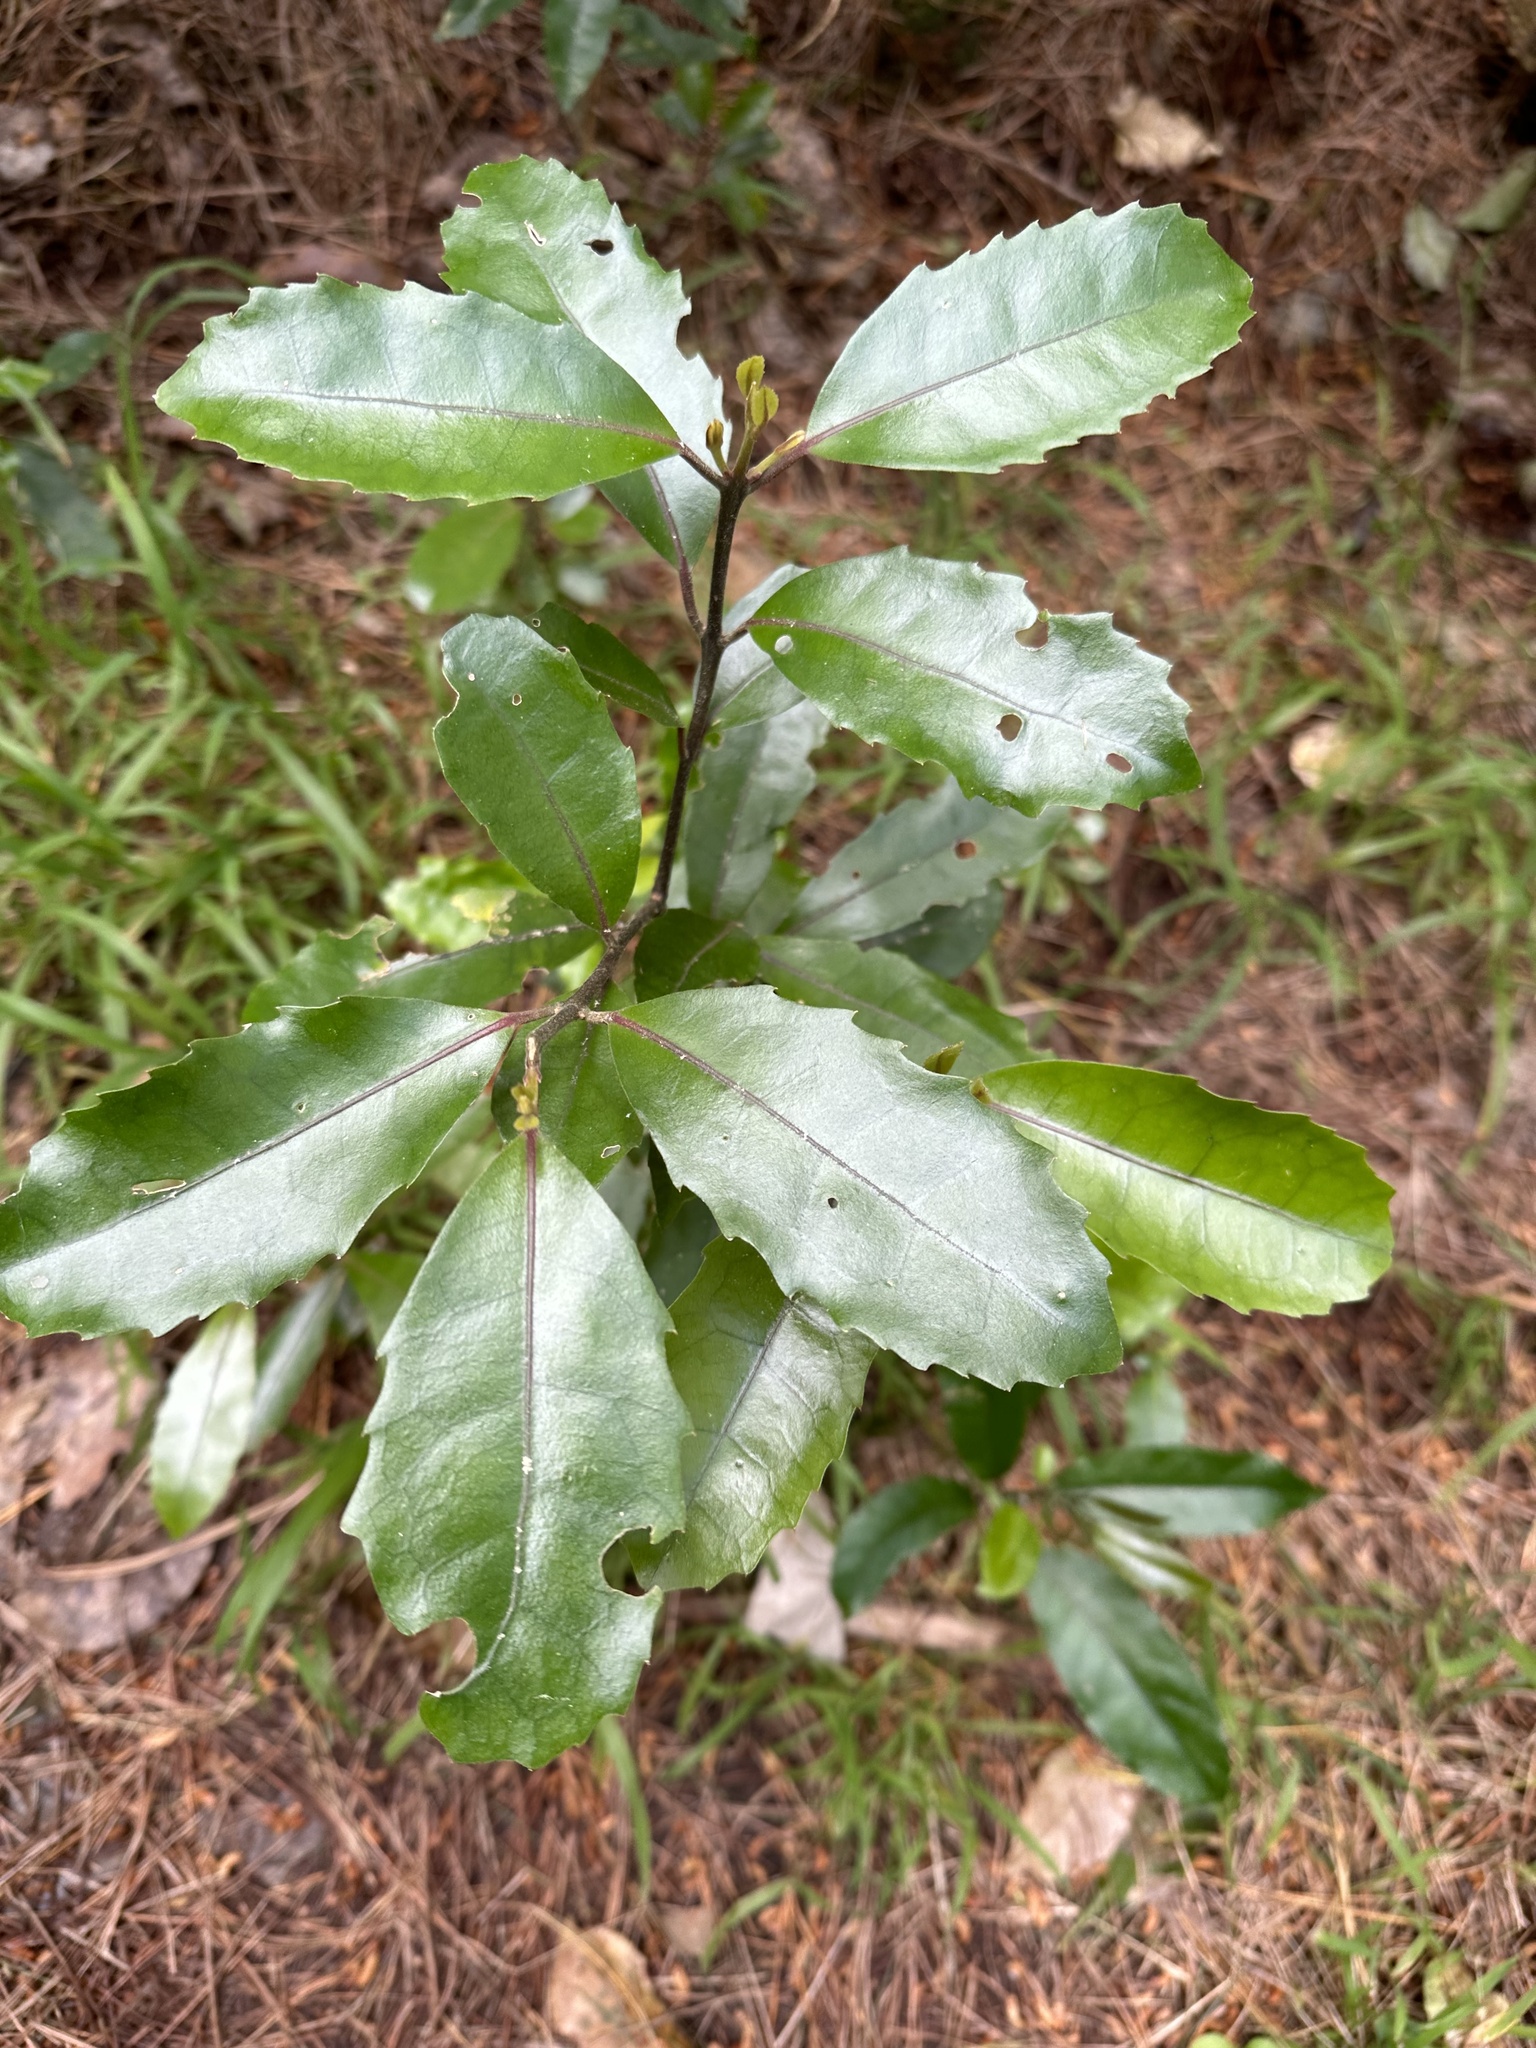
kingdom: Plantae
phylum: Tracheophyta
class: Magnoliopsida
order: Laurales
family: Monimiaceae
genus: Hedycarya
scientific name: Hedycarya arborea
